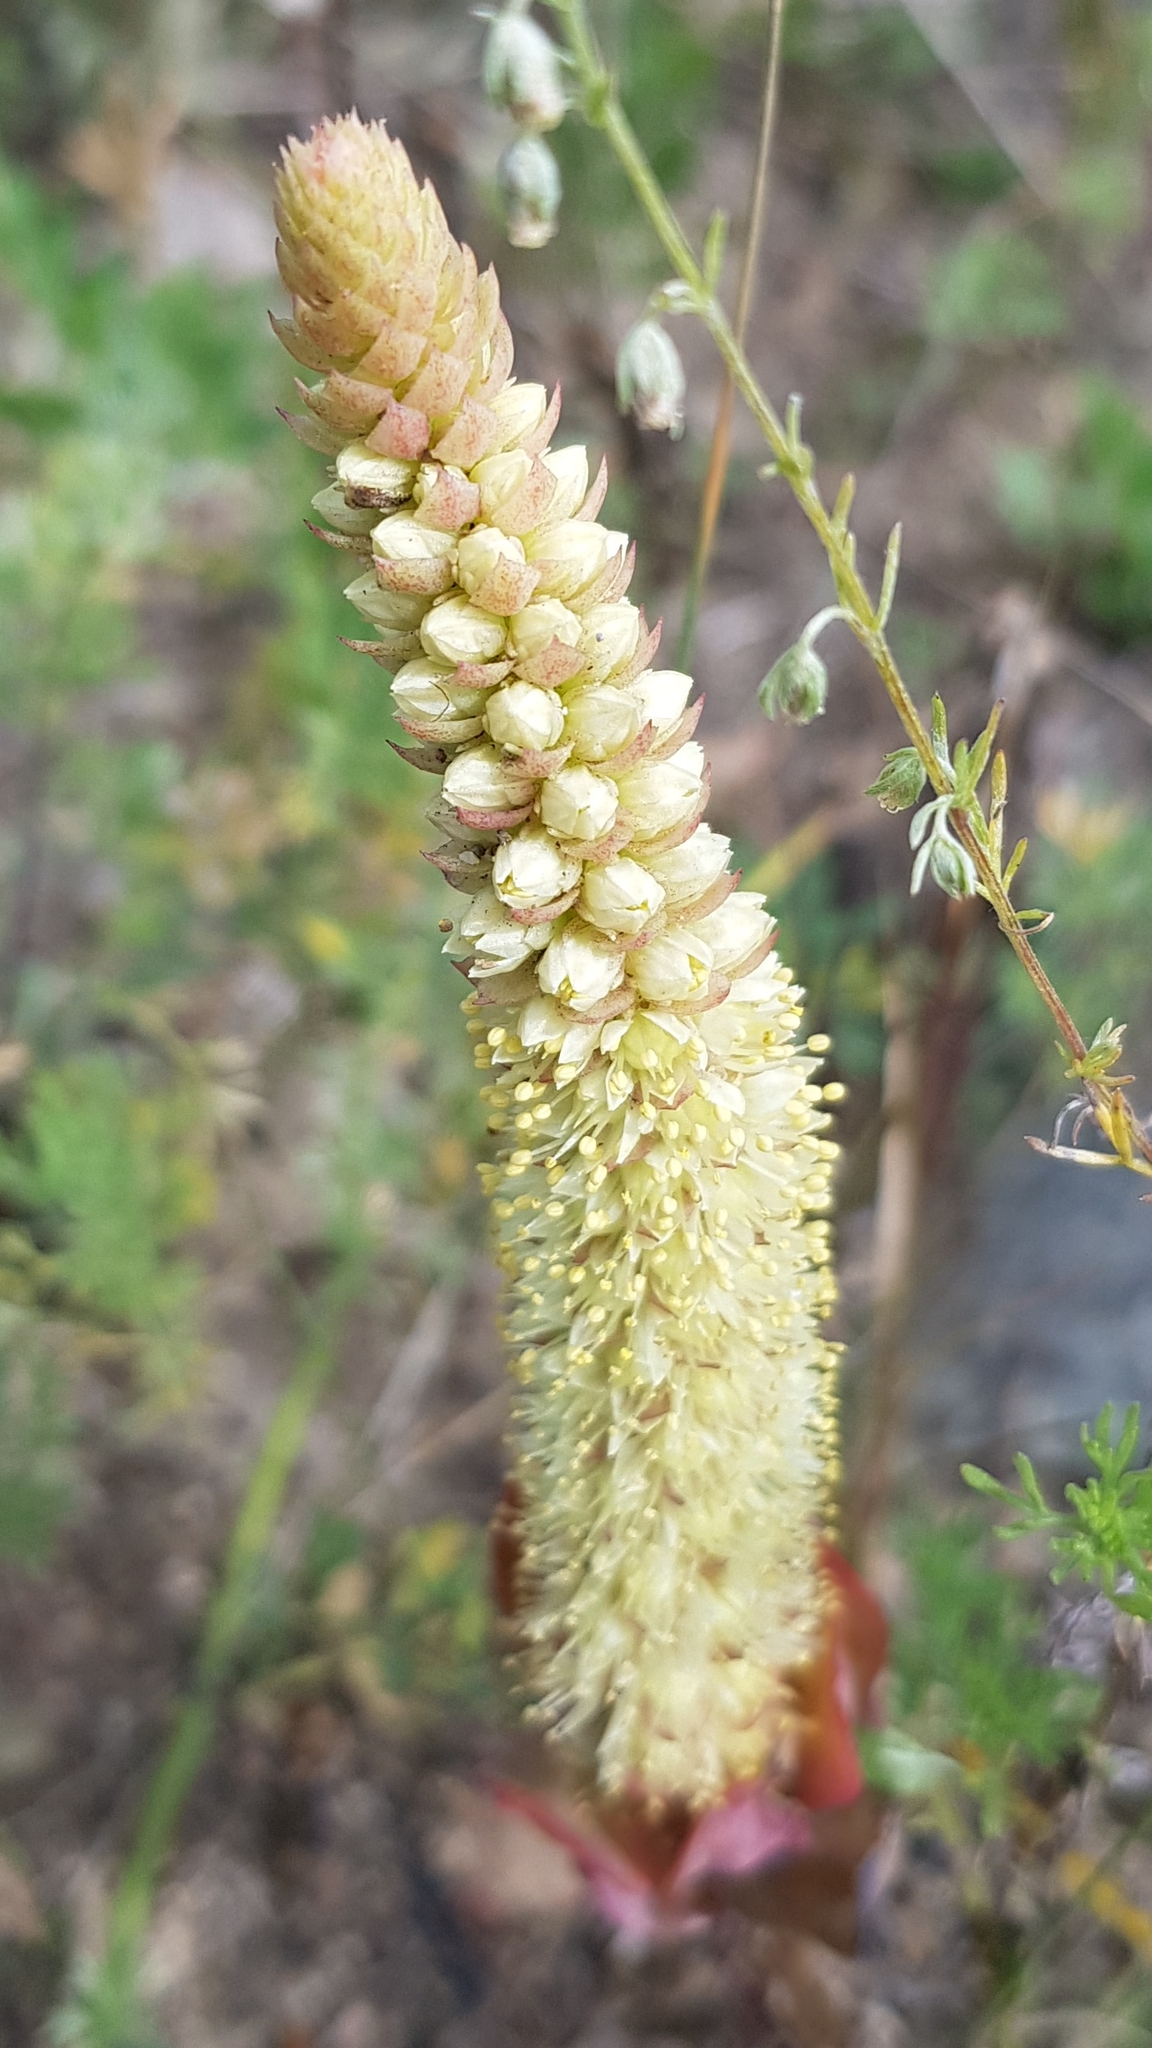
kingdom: Plantae
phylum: Tracheophyta
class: Magnoliopsida
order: Saxifragales
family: Crassulaceae
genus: Orostachys
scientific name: Orostachys malacophylla
